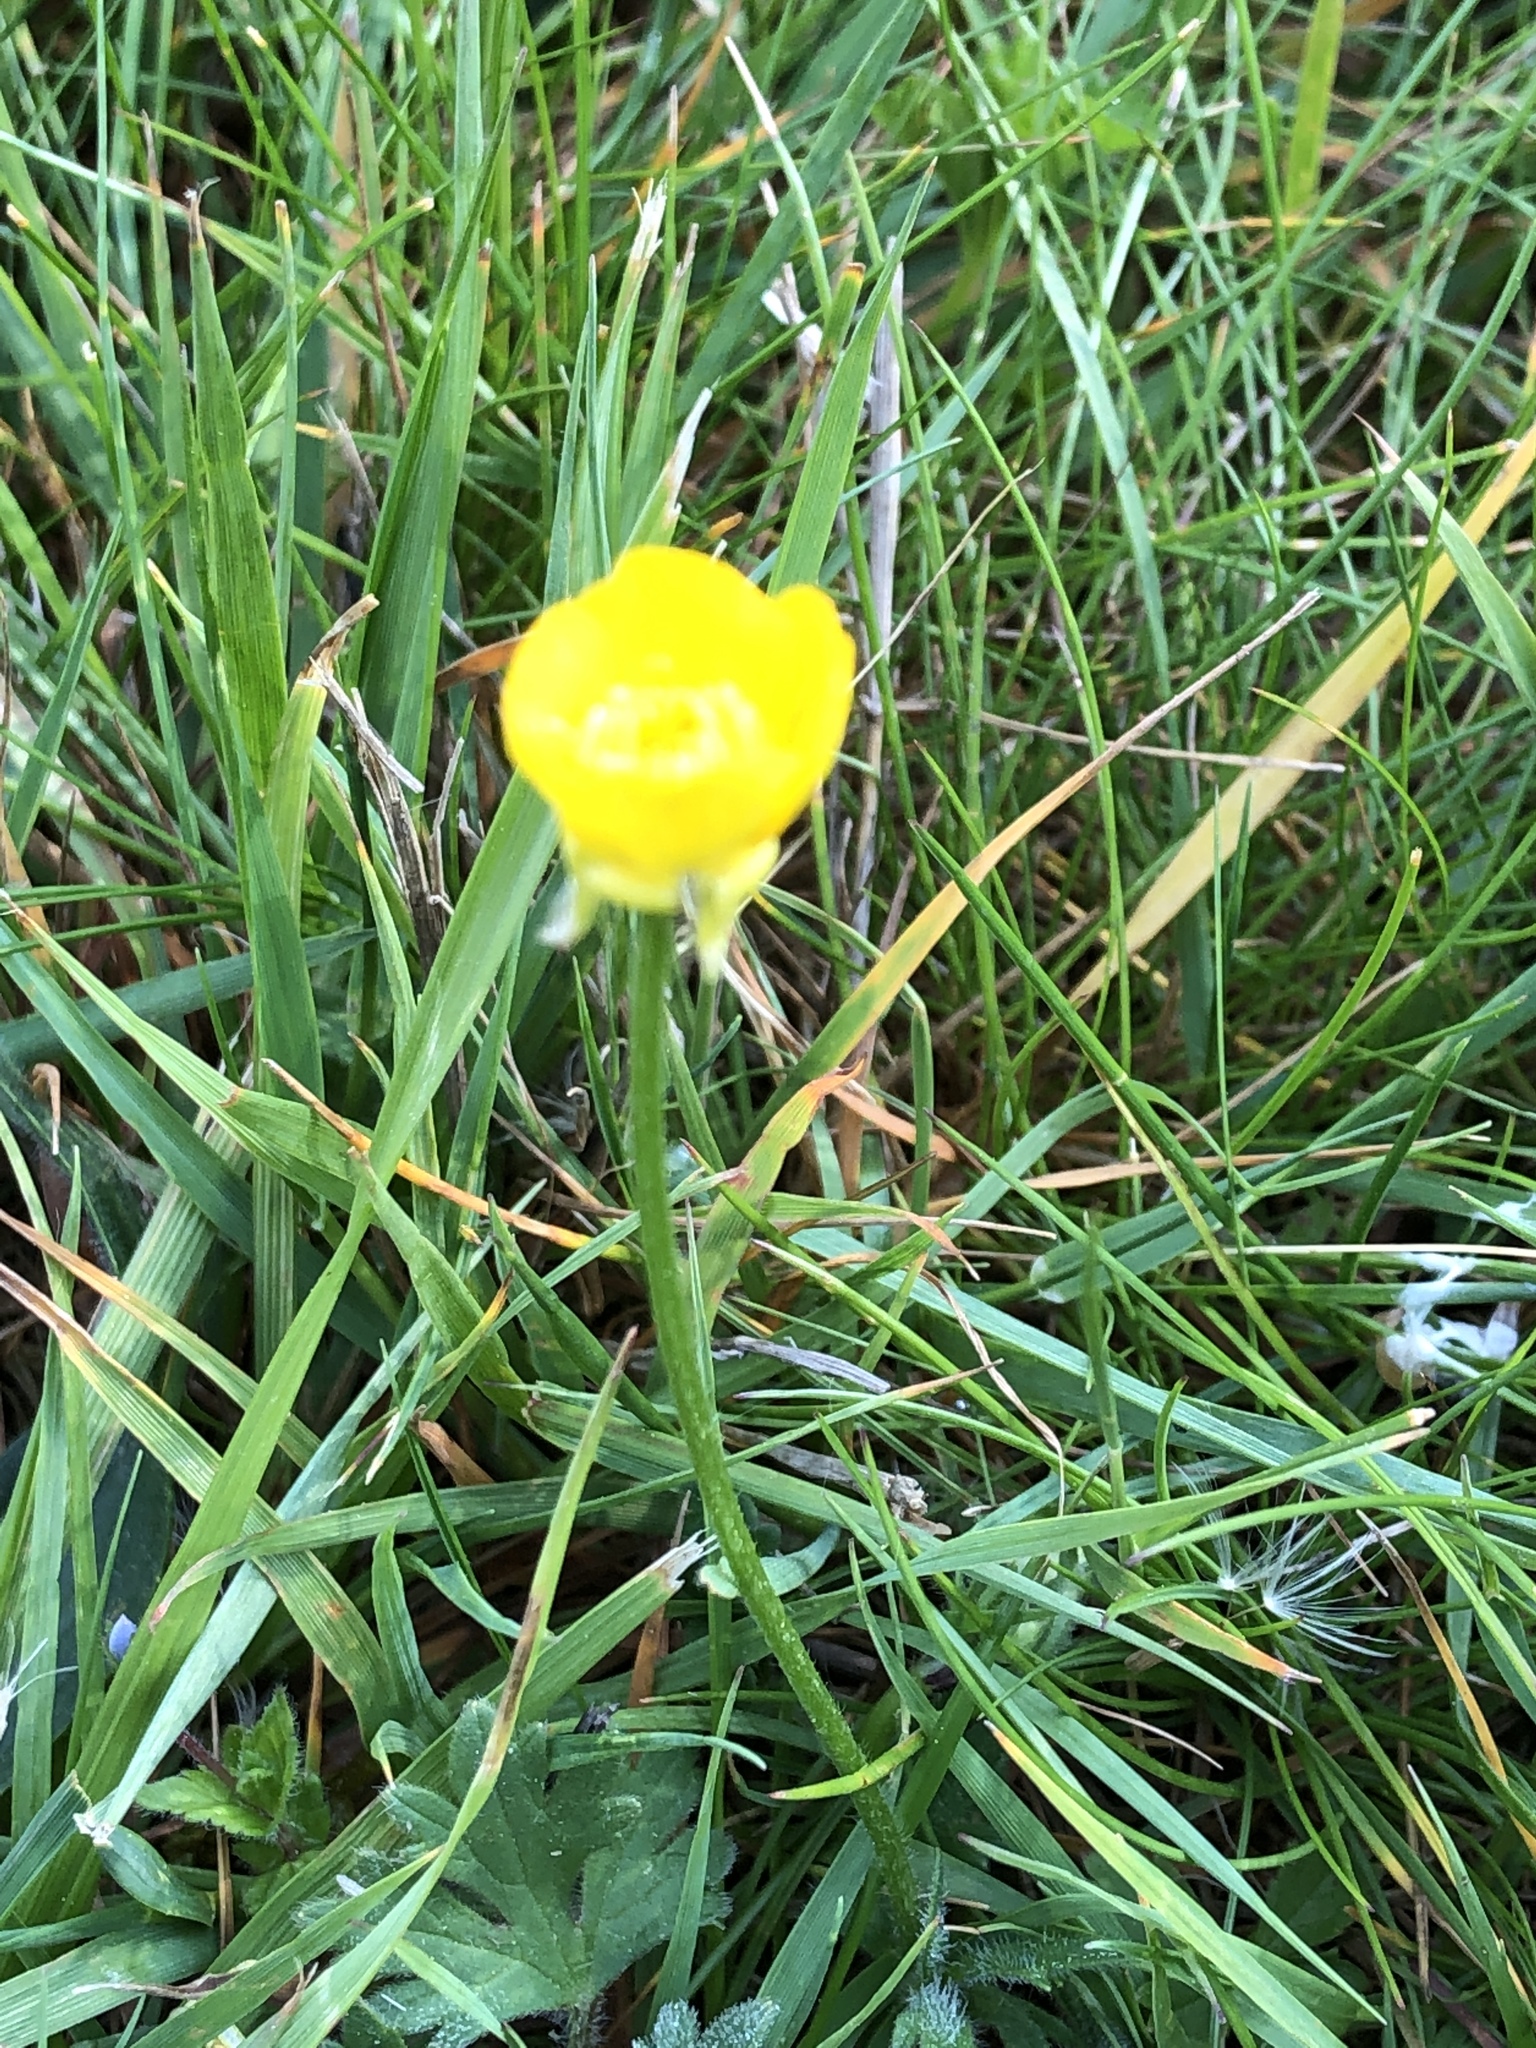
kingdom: Plantae
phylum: Tracheophyta
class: Magnoliopsida
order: Ranunculales
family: Ranunculaceae
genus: Ranunculus
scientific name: Ranunculus bulbosus
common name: Bulbous buttercup
